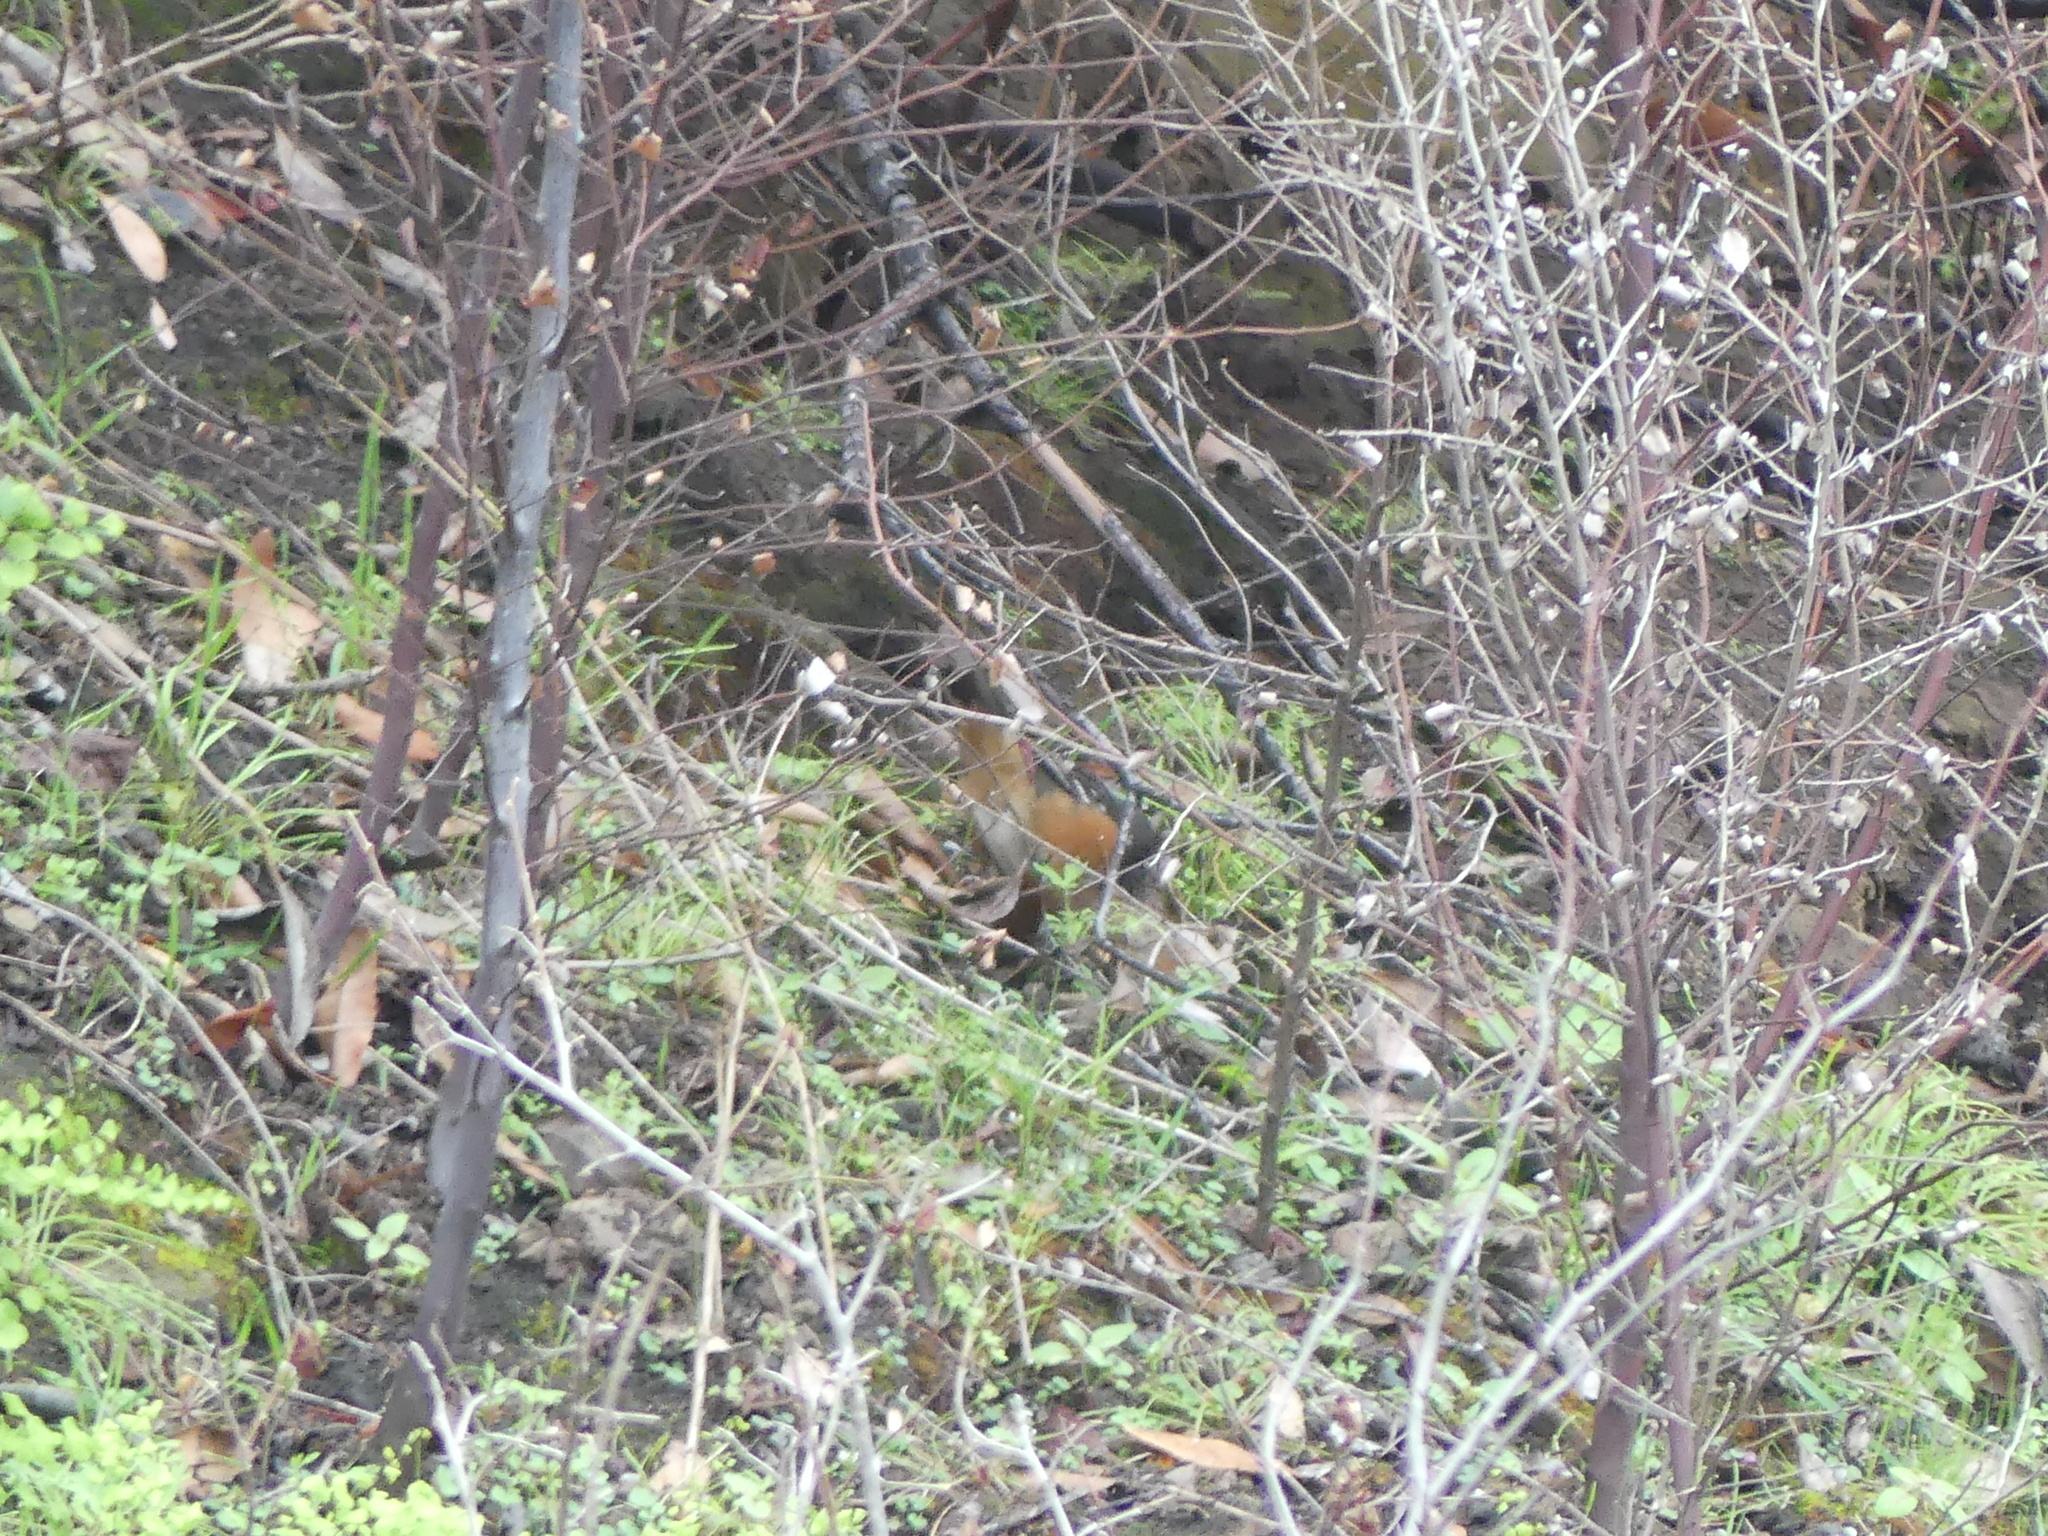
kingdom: Animalia
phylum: Chordata
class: Aves
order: Passeriformes
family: Passerellidae
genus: Pipilo
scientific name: Pipilo maculatus
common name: Spotted towhee
